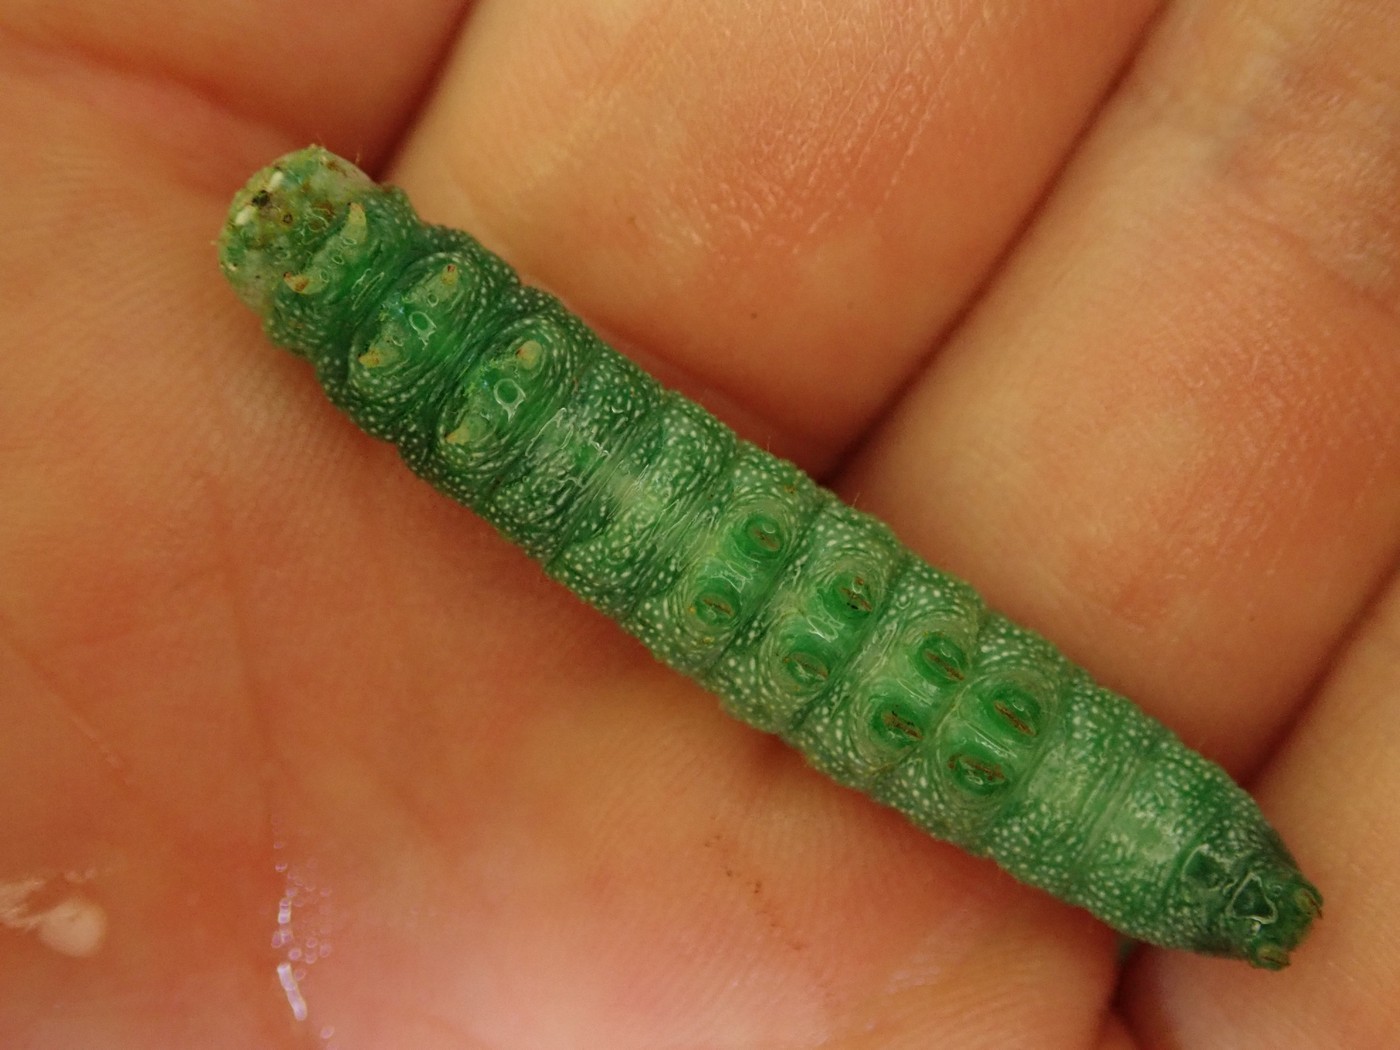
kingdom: Animalia
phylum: Arthropoda
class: Insecta
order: Lepidoptera
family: Notodontidae
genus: Nadata
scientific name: Nadata gibbosa
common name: White-dotted prominent
